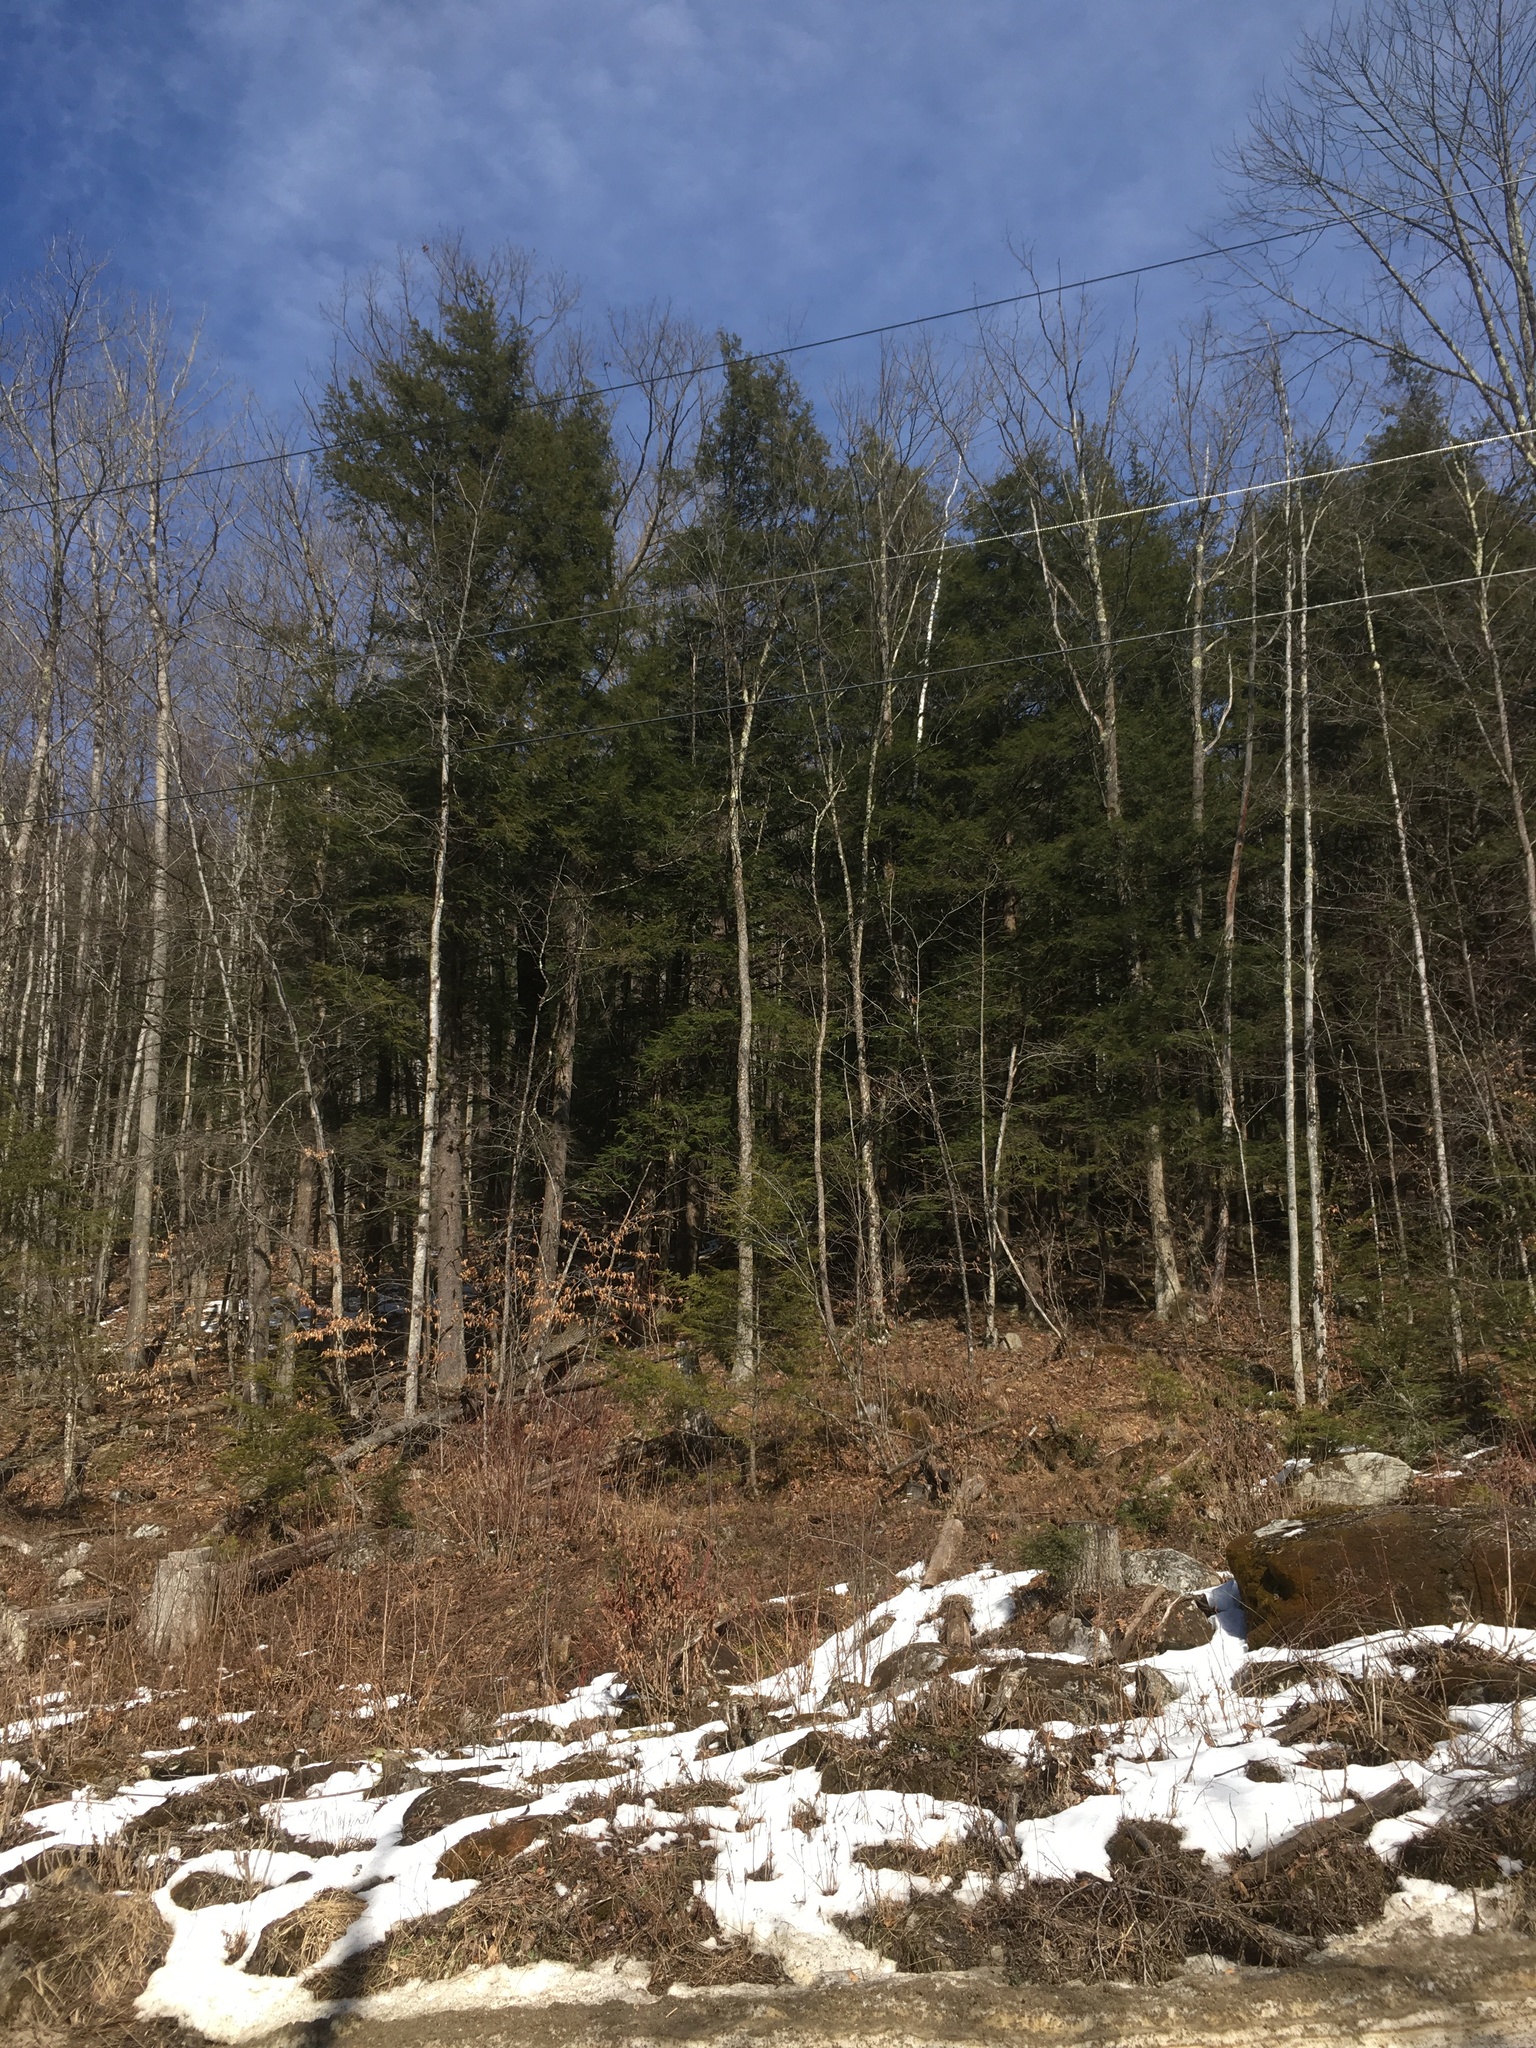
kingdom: Plantae
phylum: Tracheophyta
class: Pinopsida
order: Pinales
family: Pinaceae
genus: Tsuga
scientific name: Tsuga canadensis
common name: Eastern hemlock
